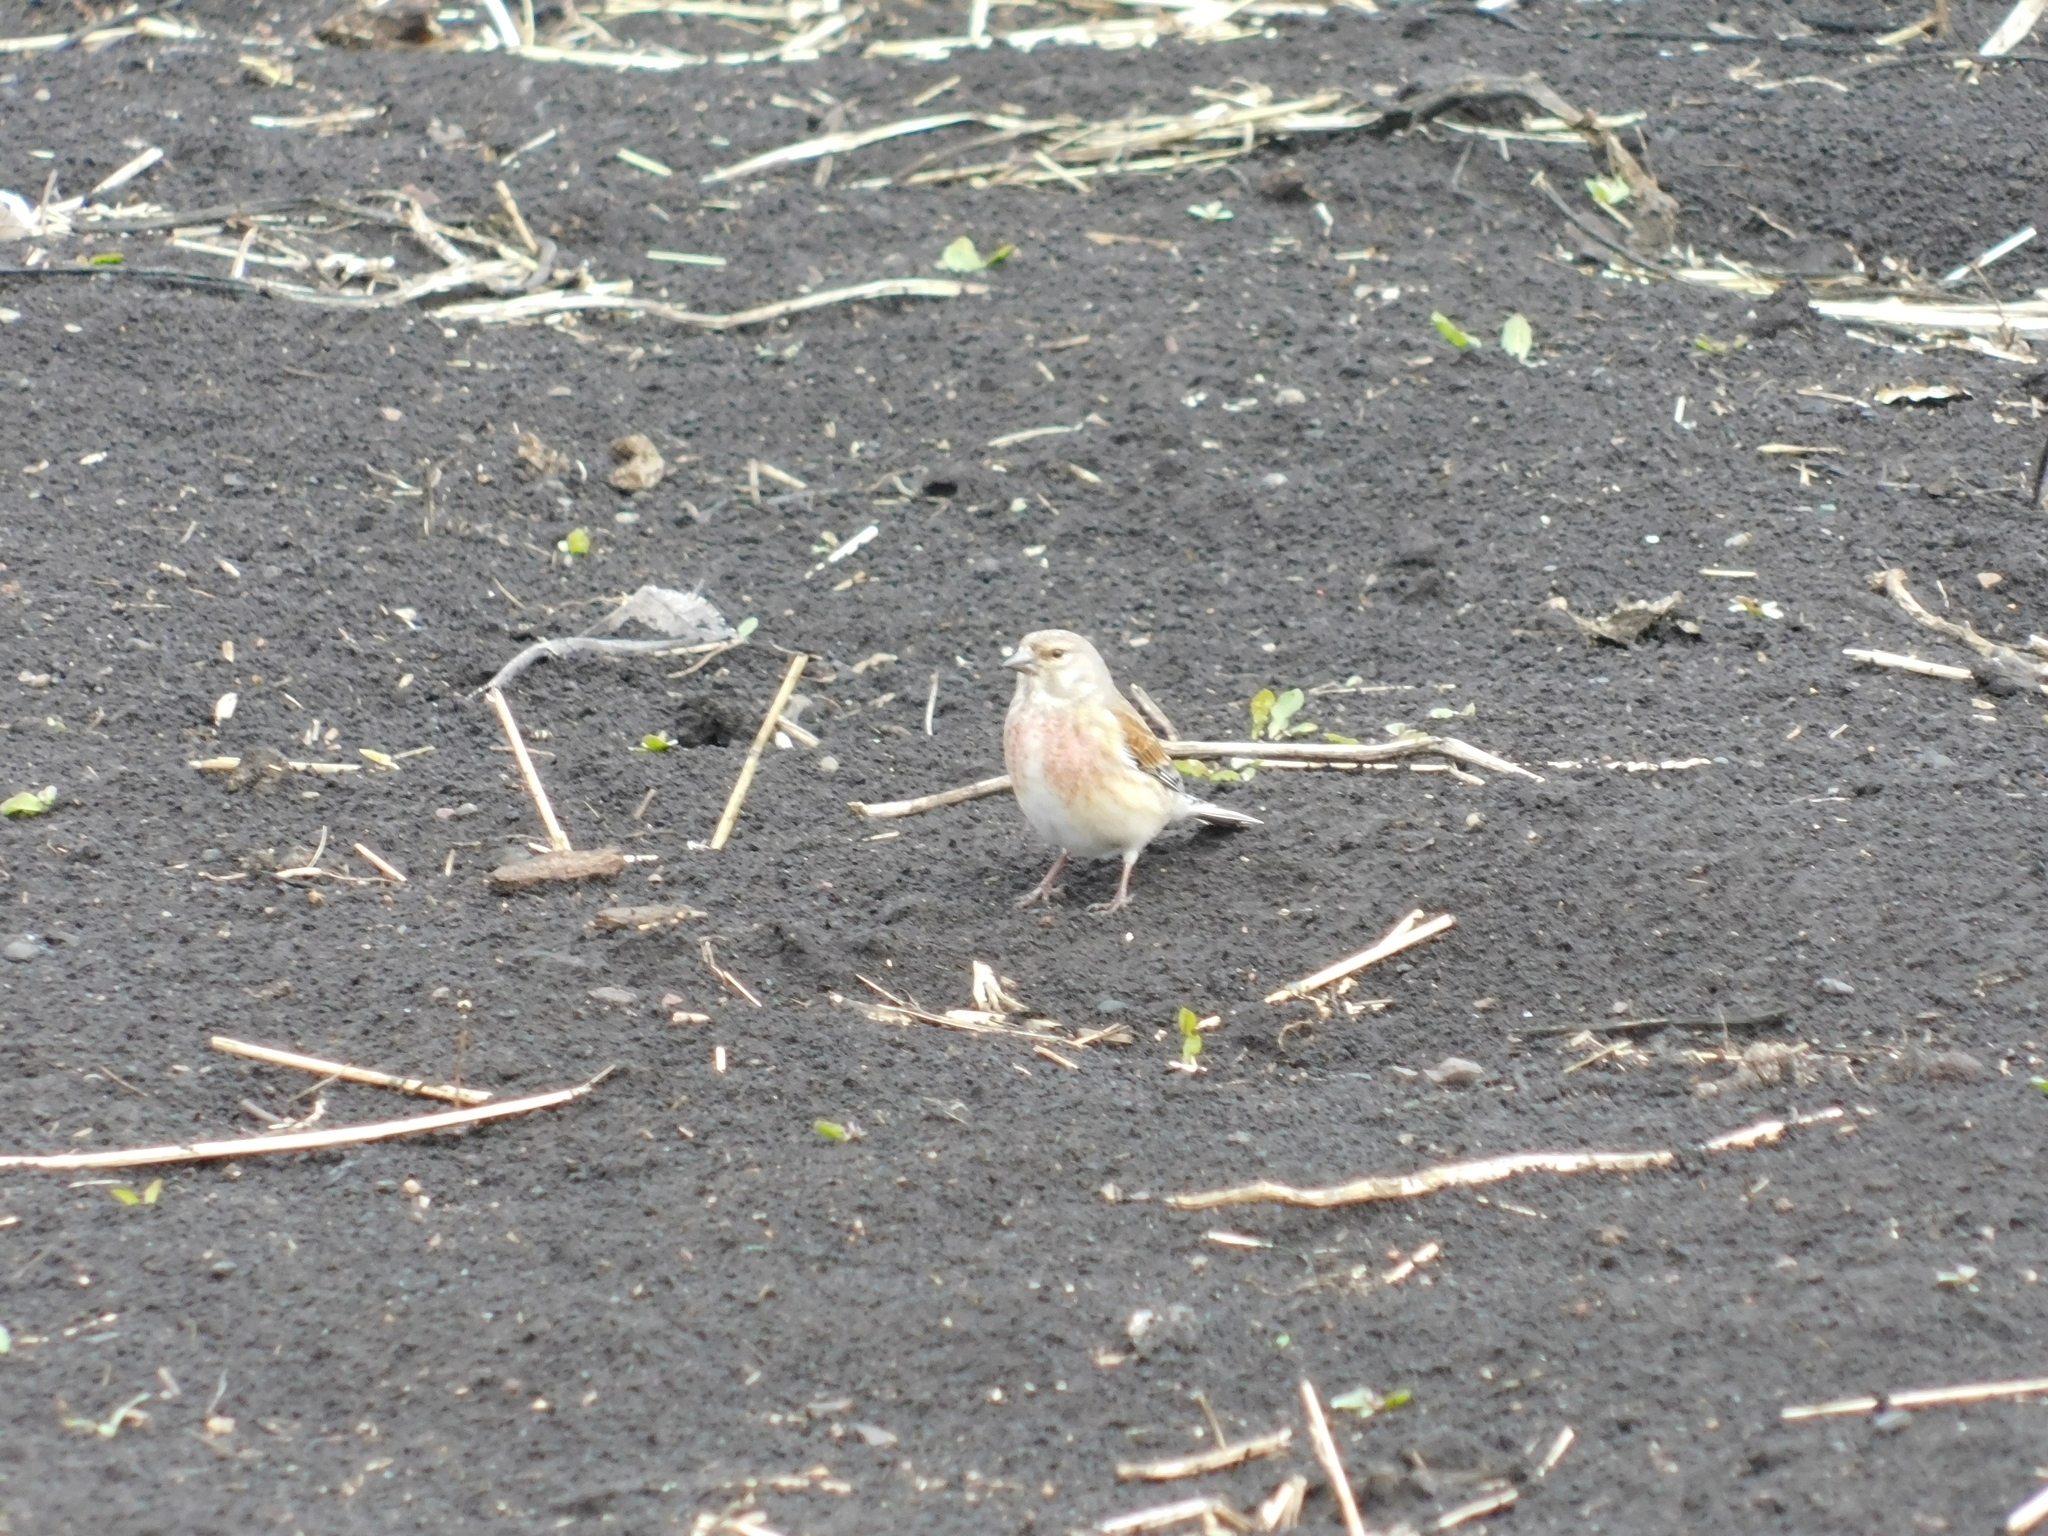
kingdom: Animalia
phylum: Chordata
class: Aves
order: Passeriformes
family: Fringillidae
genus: Linaria
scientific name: Linaria cannabina
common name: Common linnet
